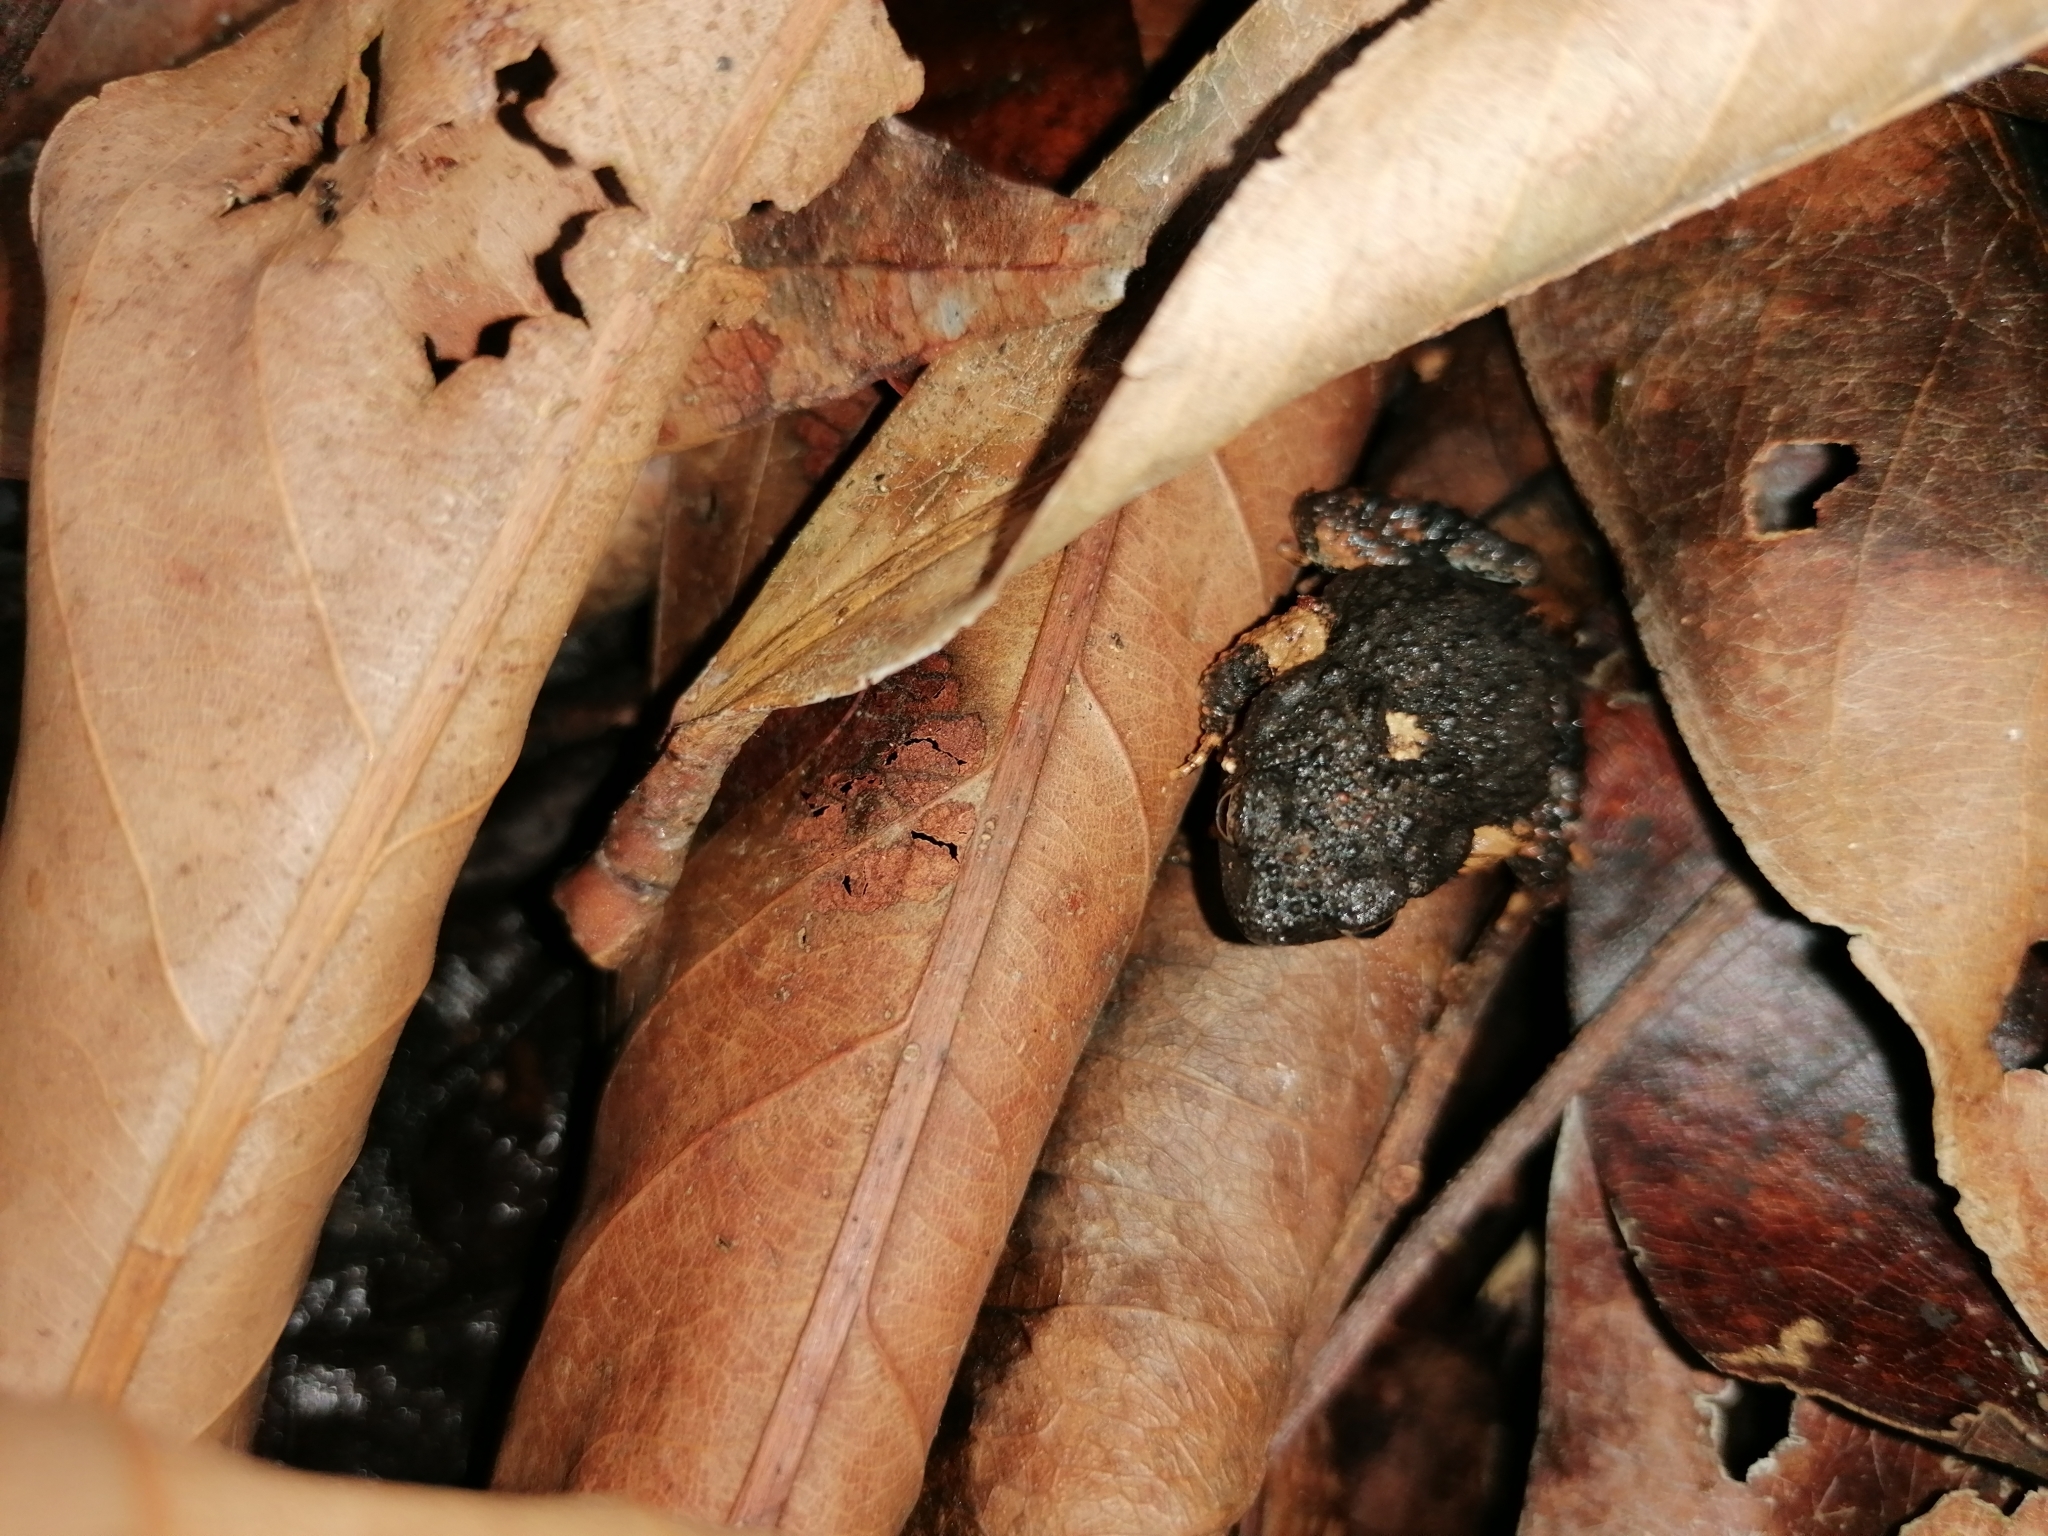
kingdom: Animalia
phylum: Chordata
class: Amphibia
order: Anura
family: Leptodactylidae
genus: Engystomops
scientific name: Engystomops pustulosus
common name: Tungara frog
